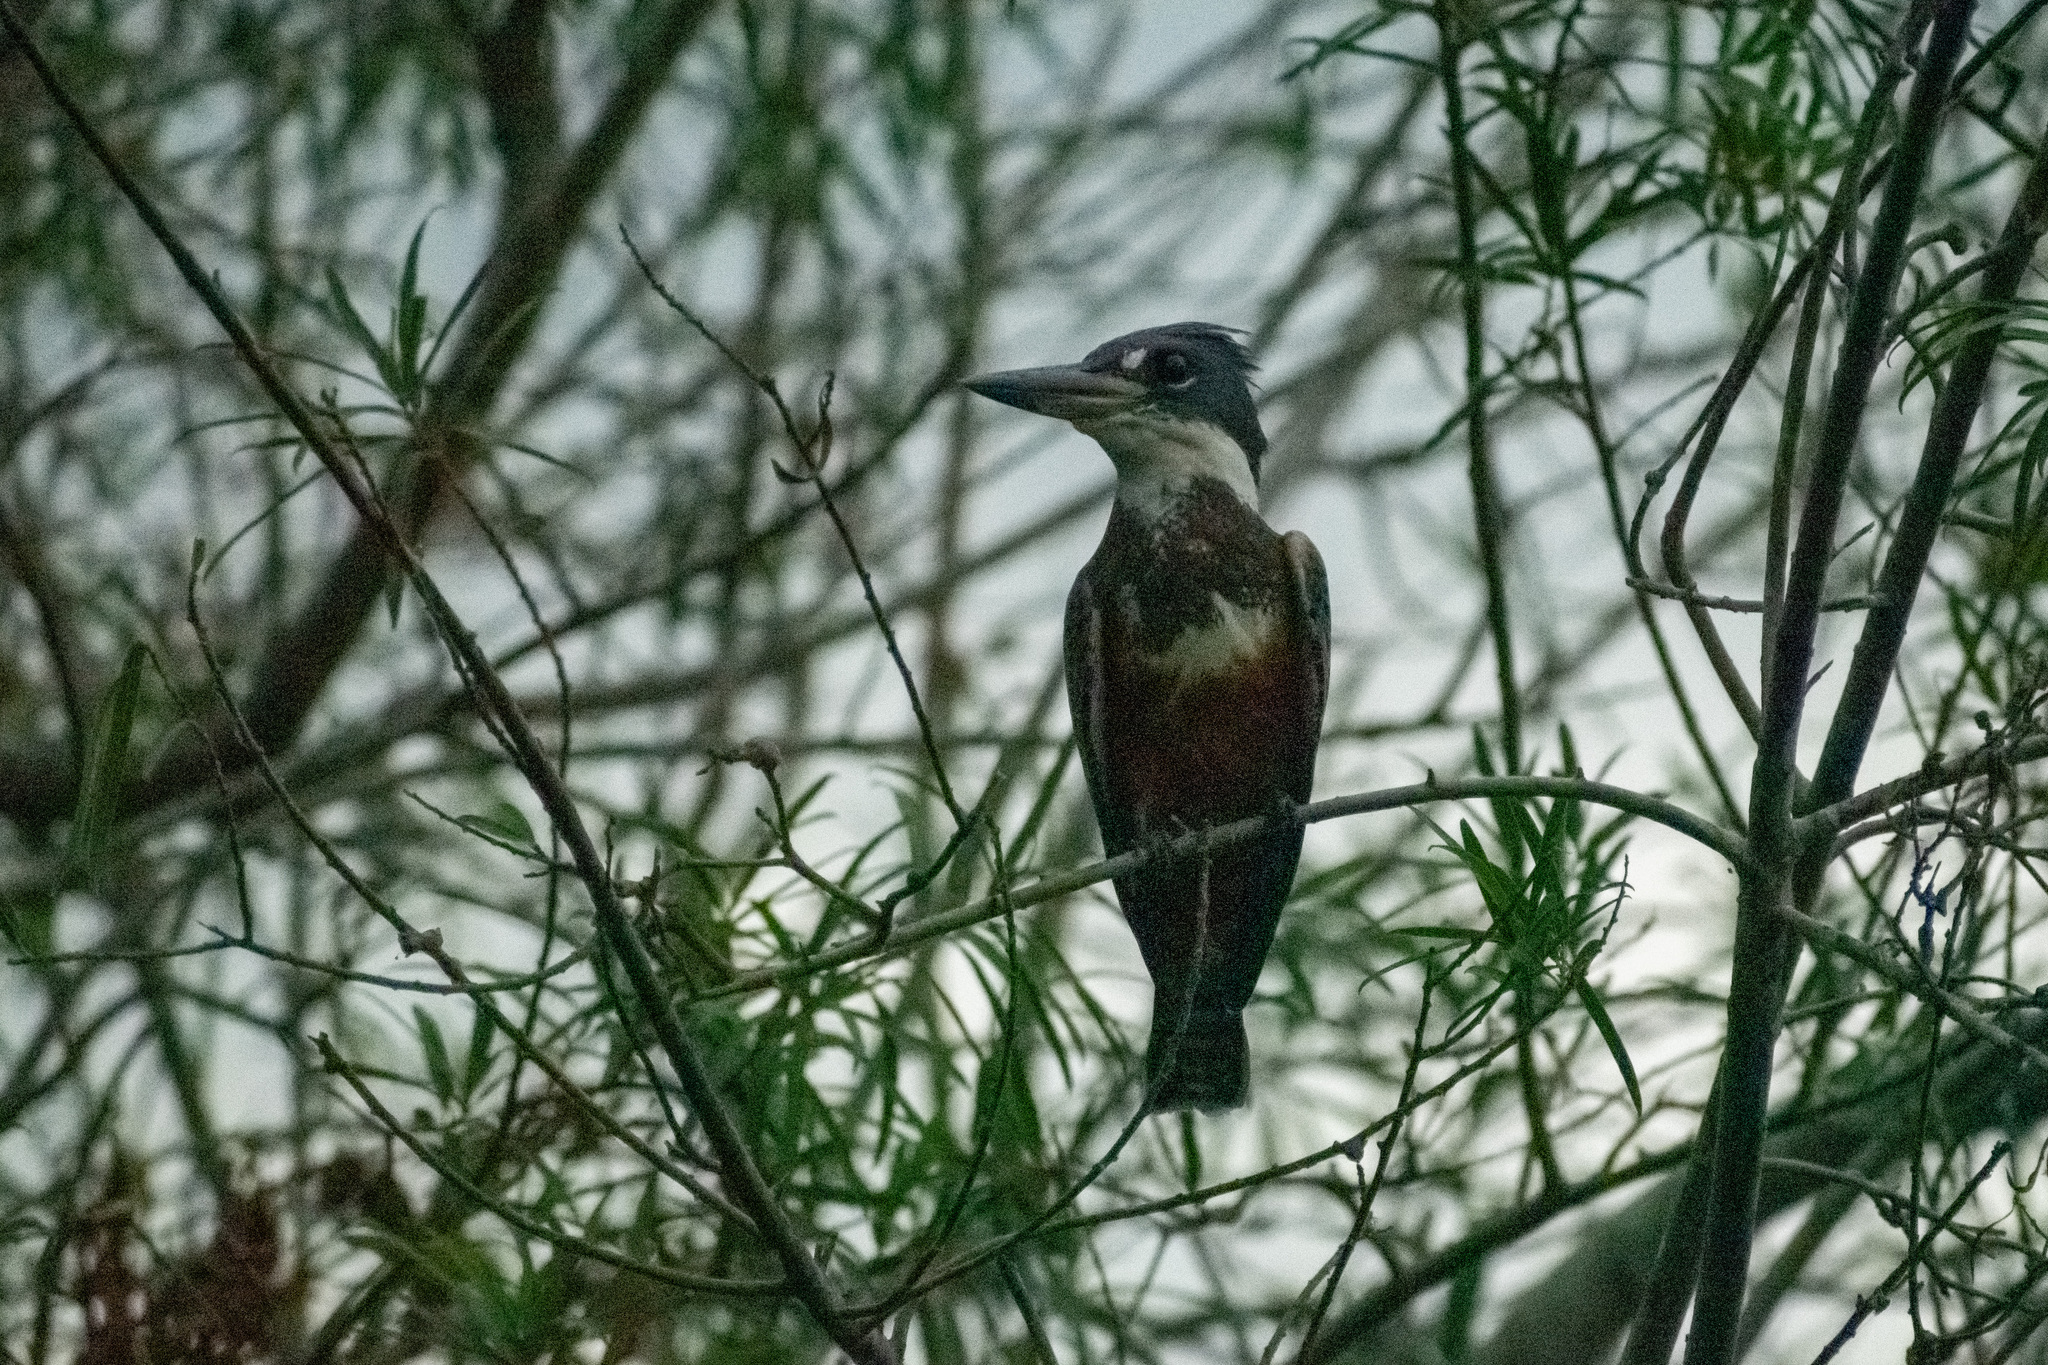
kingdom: Animalia
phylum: Chordata
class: Aves
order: Coraciiformes
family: Alcedinidae
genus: Megaceryle
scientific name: Megaceryle torquata
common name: Ringed kingfisher
